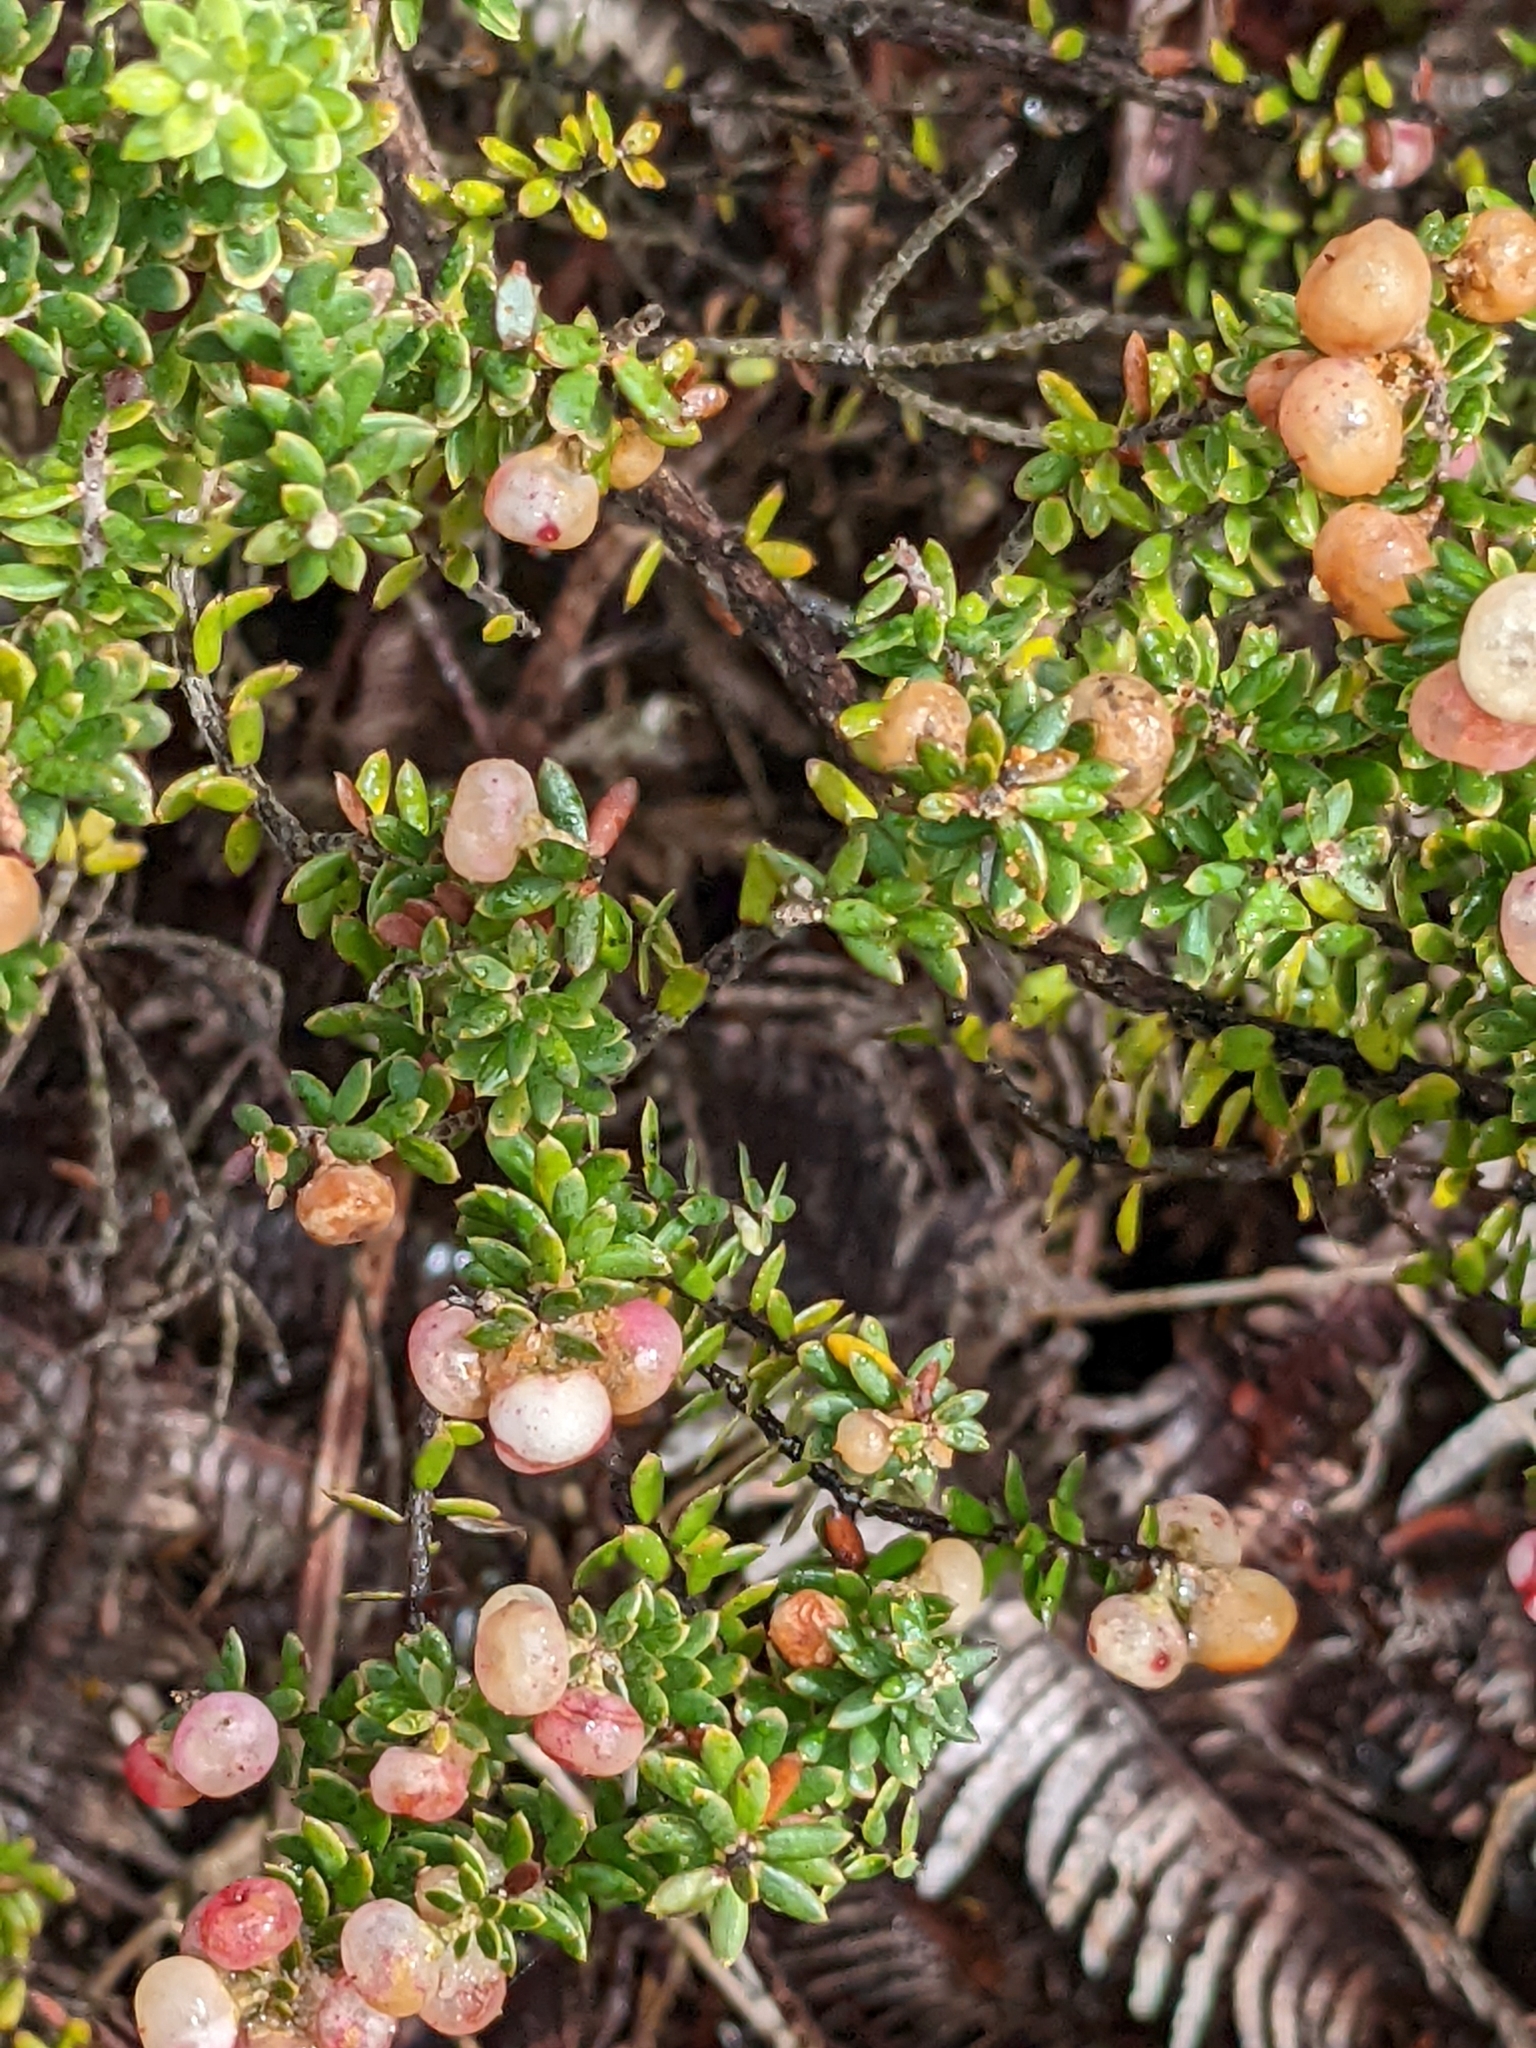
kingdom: Plantae
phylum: Tracheophyta
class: Magnoliopsida
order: Ericales
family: Ericaceae
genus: Leptecophylla
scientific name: Leptecophylla tameiameiae
